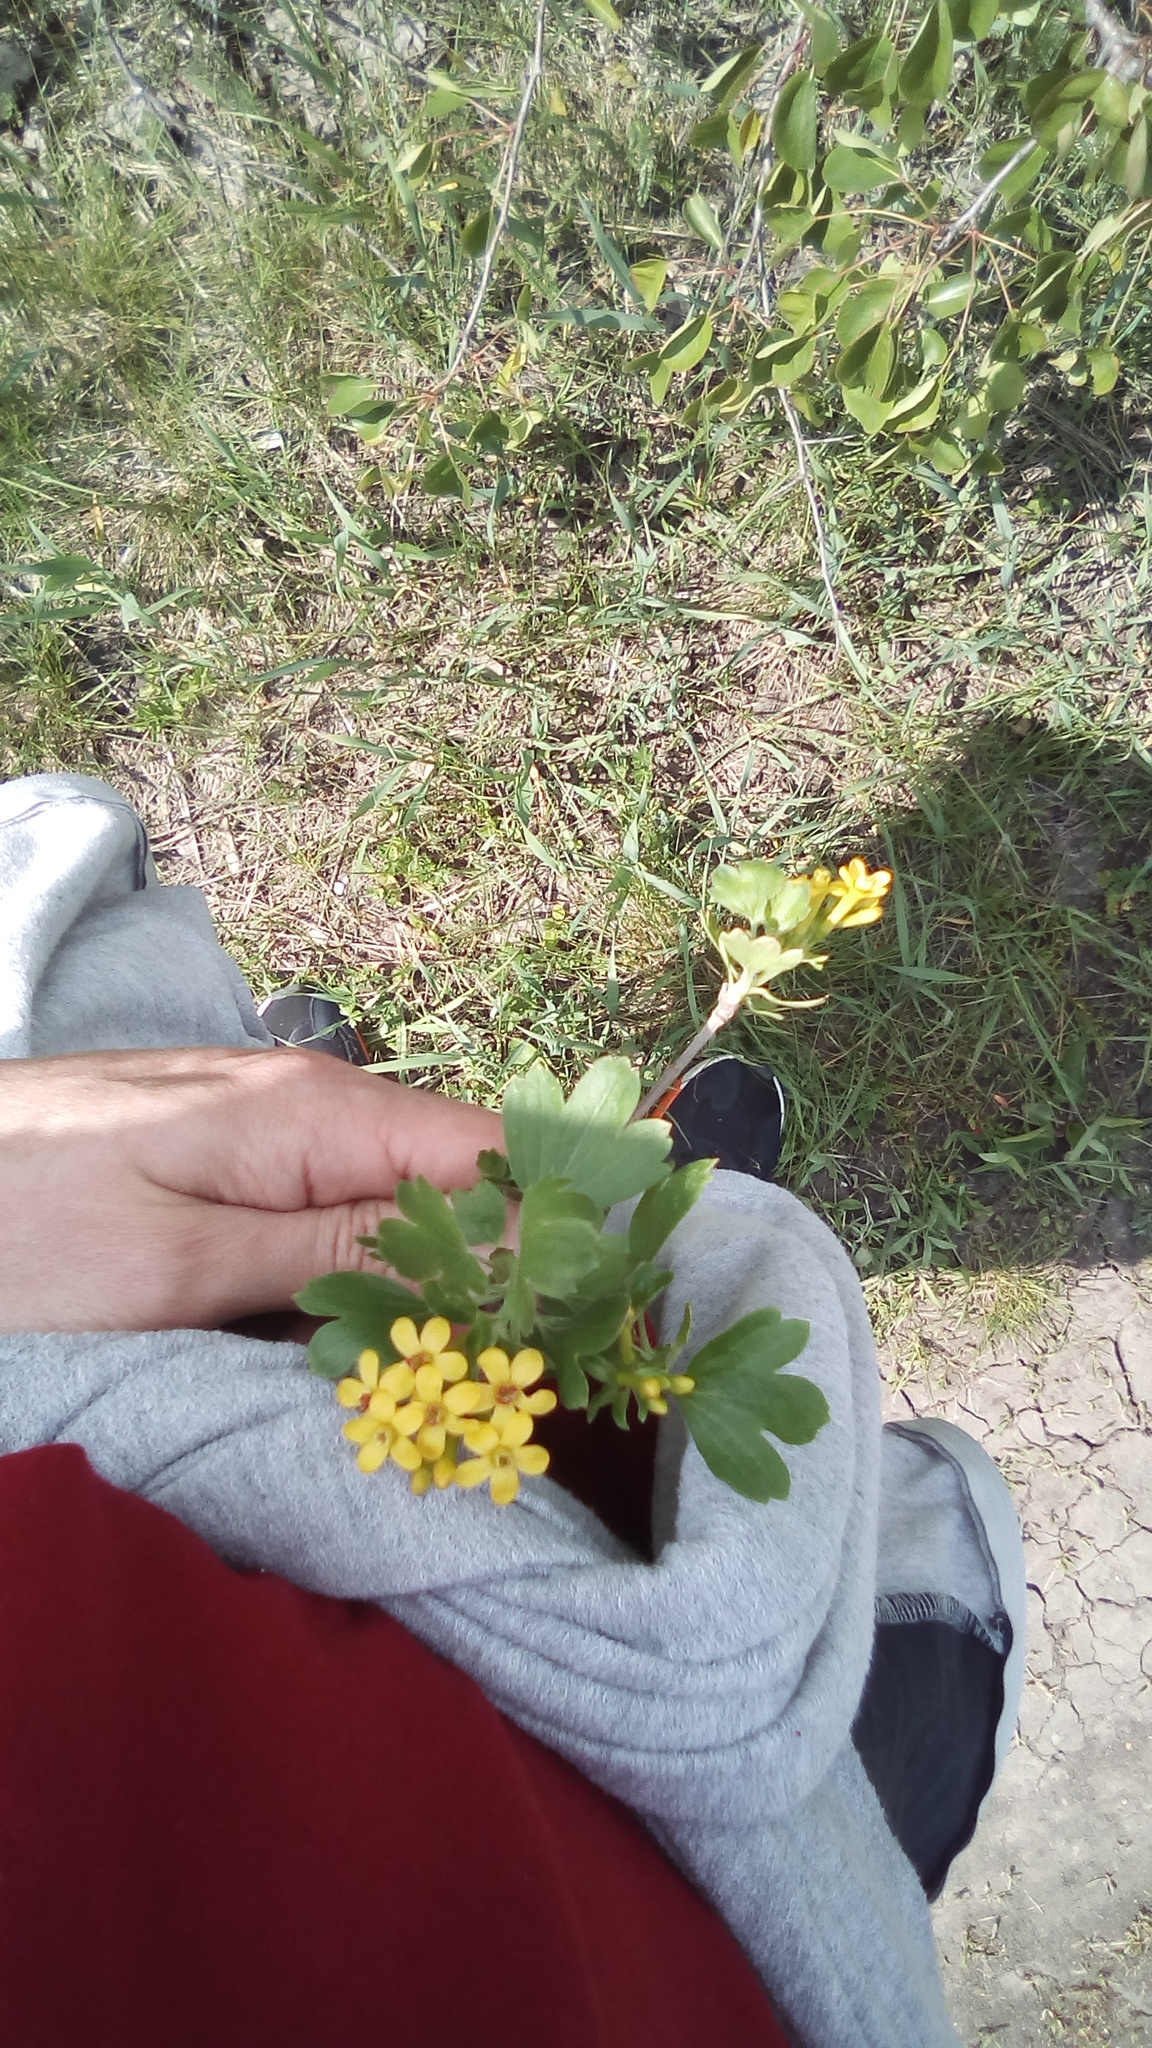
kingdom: Plantae
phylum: Tracheophyta
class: Magnoliopsida
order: Saxifragales
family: Grossulariaceae
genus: Ribes
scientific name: Ribes aureum
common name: Golden currant
